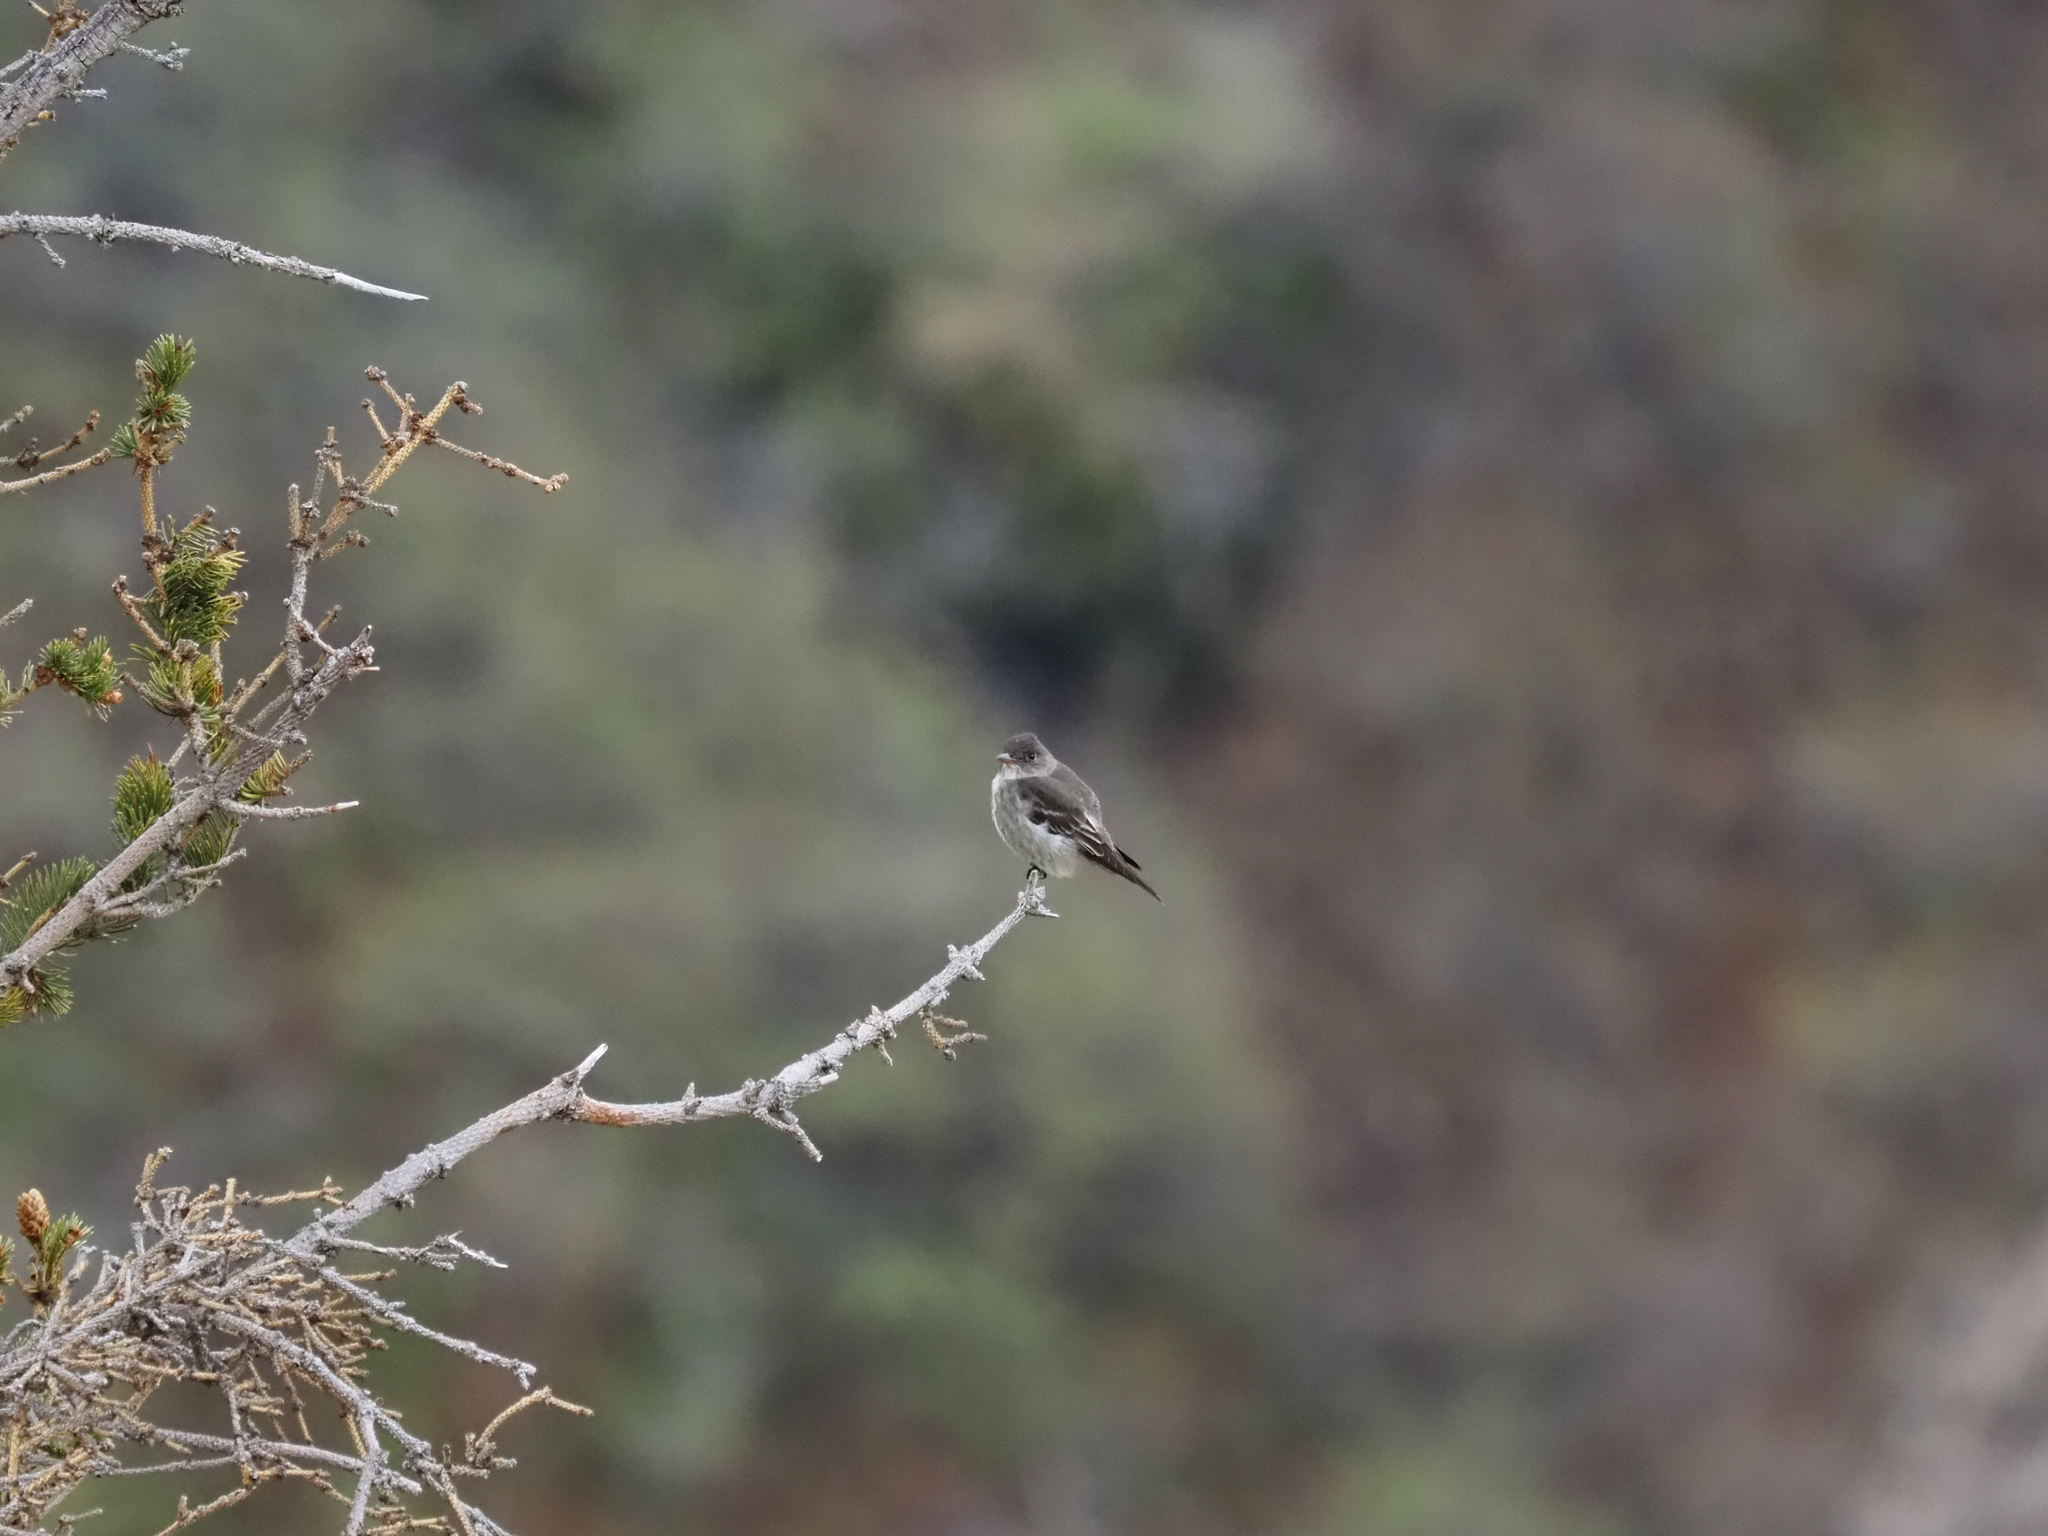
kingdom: Animalia
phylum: Chordata
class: Aves
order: Passeriformes
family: Tyrannidae
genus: Contopus
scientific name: Contopus cooperi
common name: Olive-sided flycatcher
